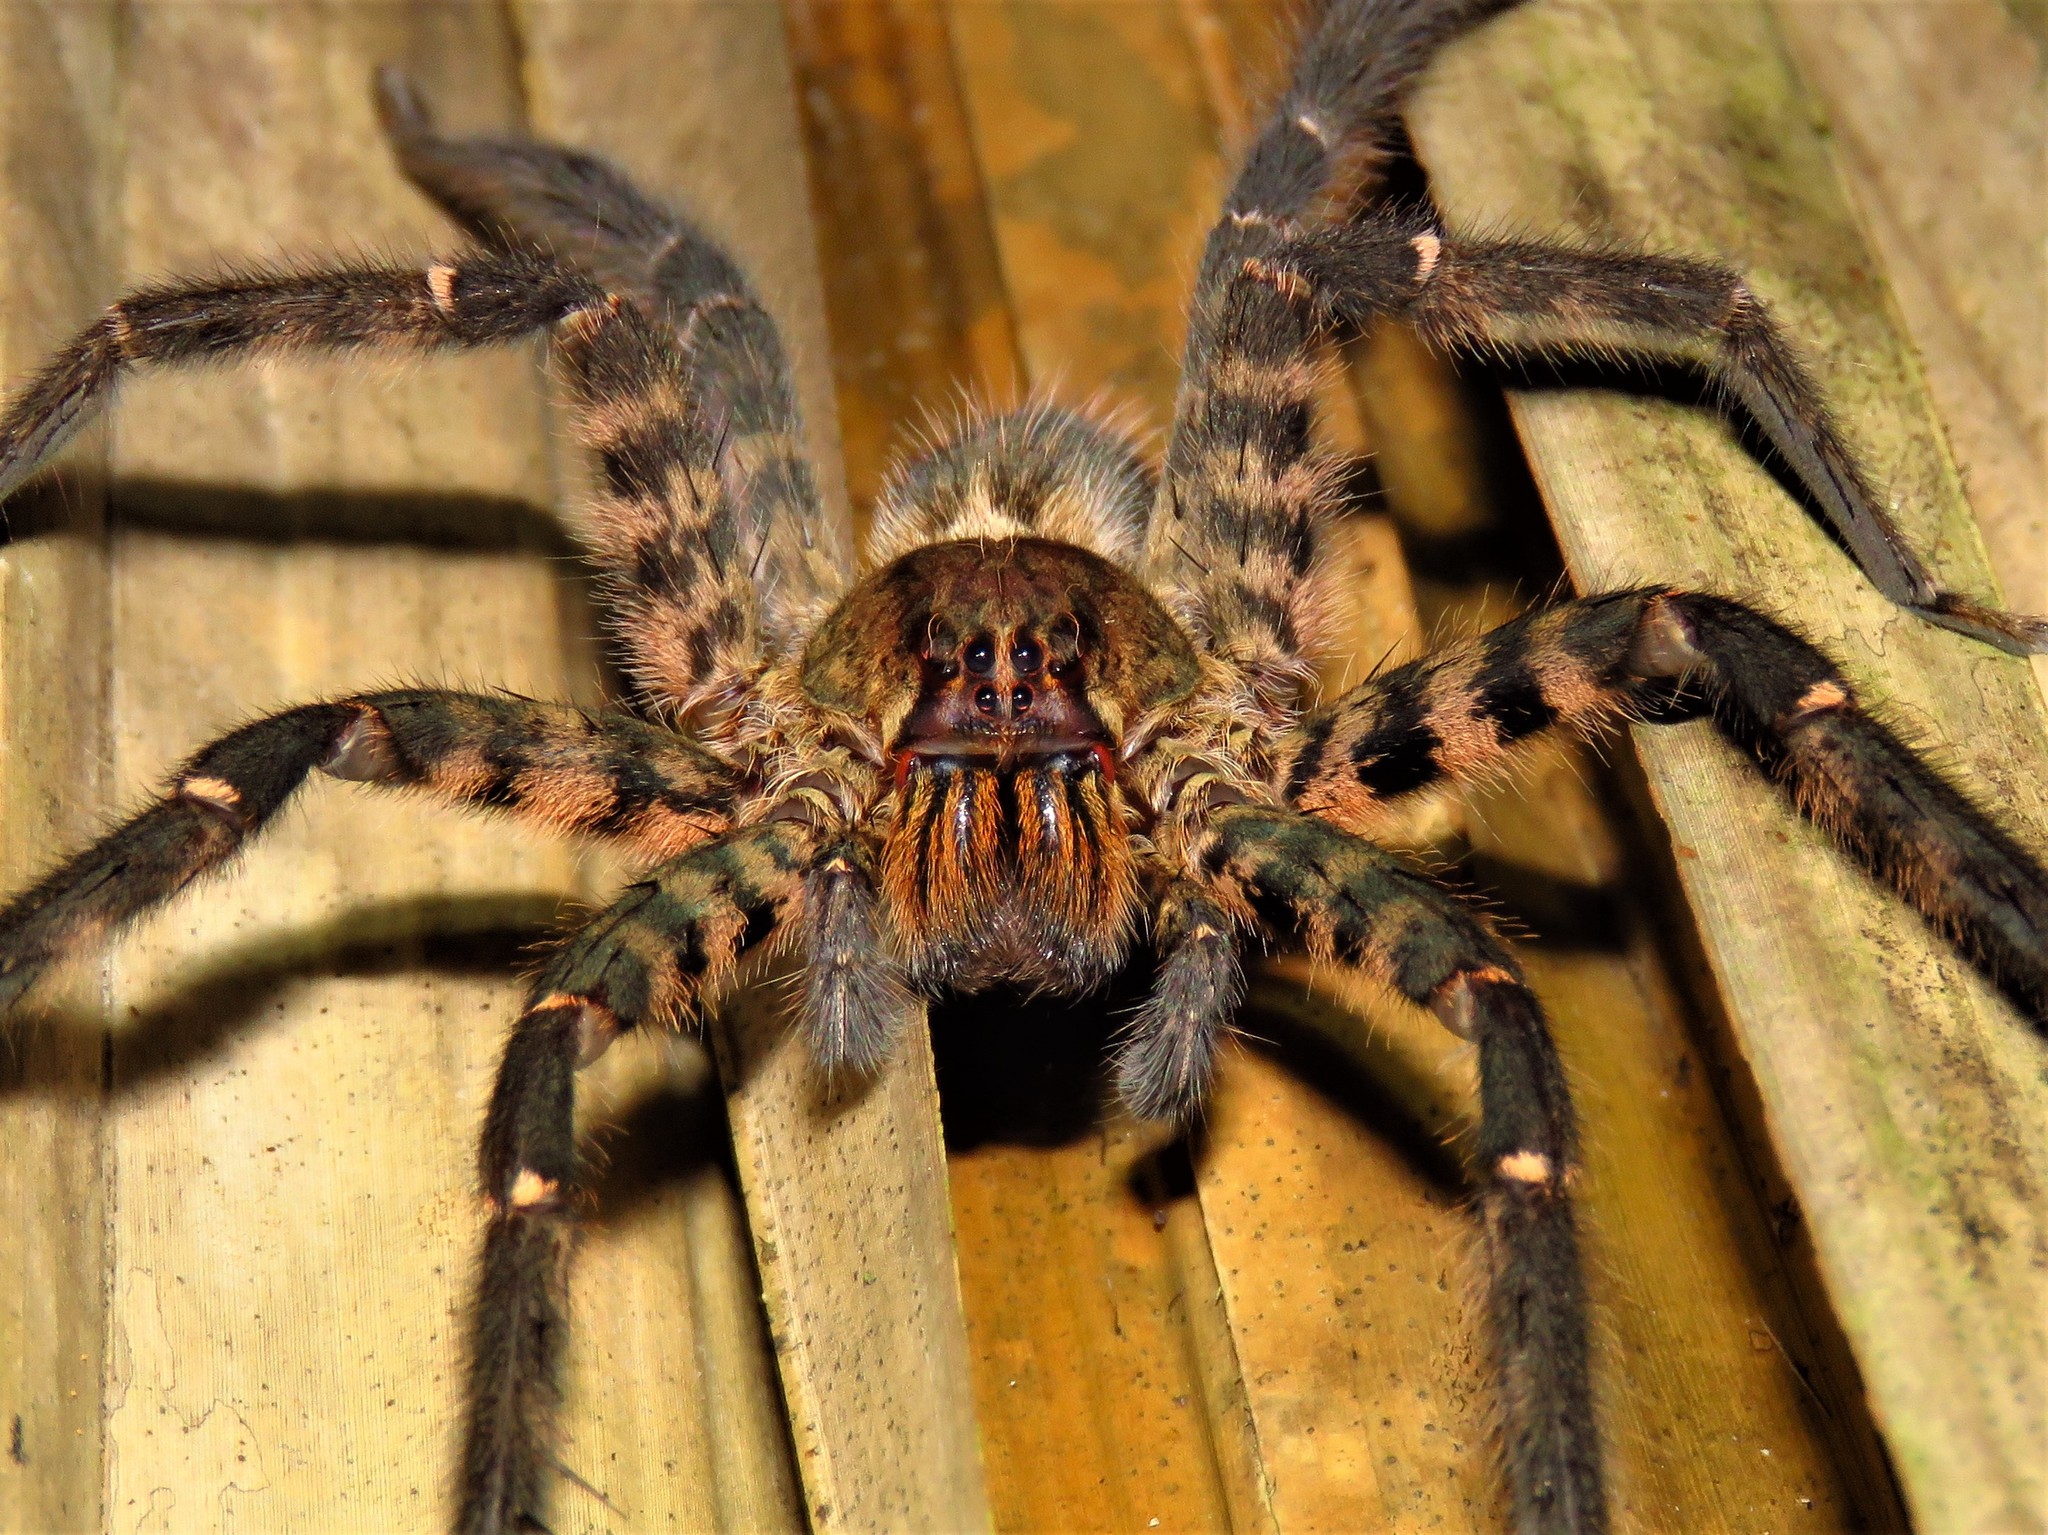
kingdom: Animalia
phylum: Arthropoda
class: Arachnida
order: Araneae
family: Trechaleidae
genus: Cupiennius
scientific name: Cupiennius salei
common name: Wandering spiders
